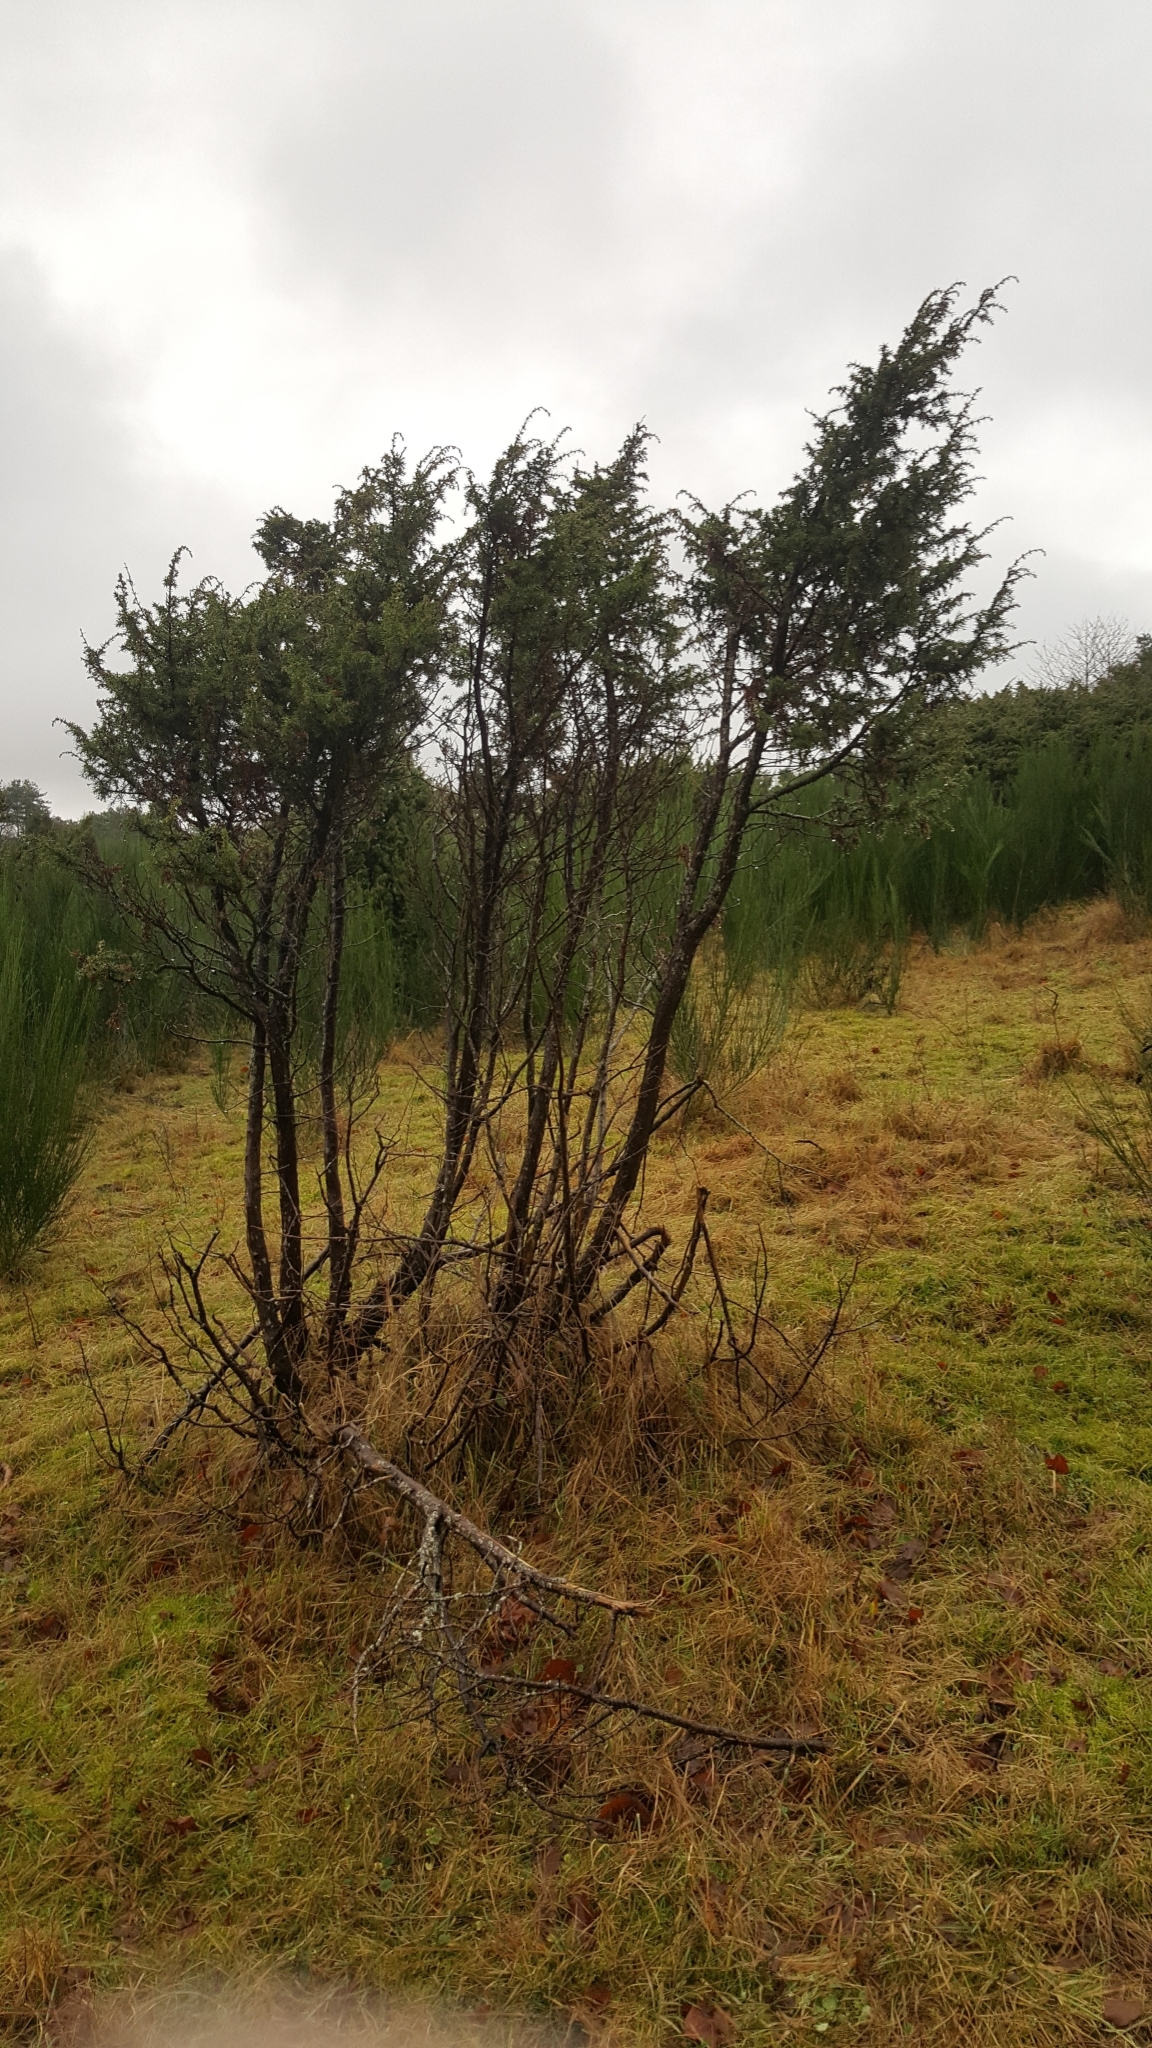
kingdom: Plantae
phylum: Tracheophyta
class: Pinopsida
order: Pinales
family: Cupressaceae
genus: Juniperus
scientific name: Juniperus communis
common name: Common juniper
